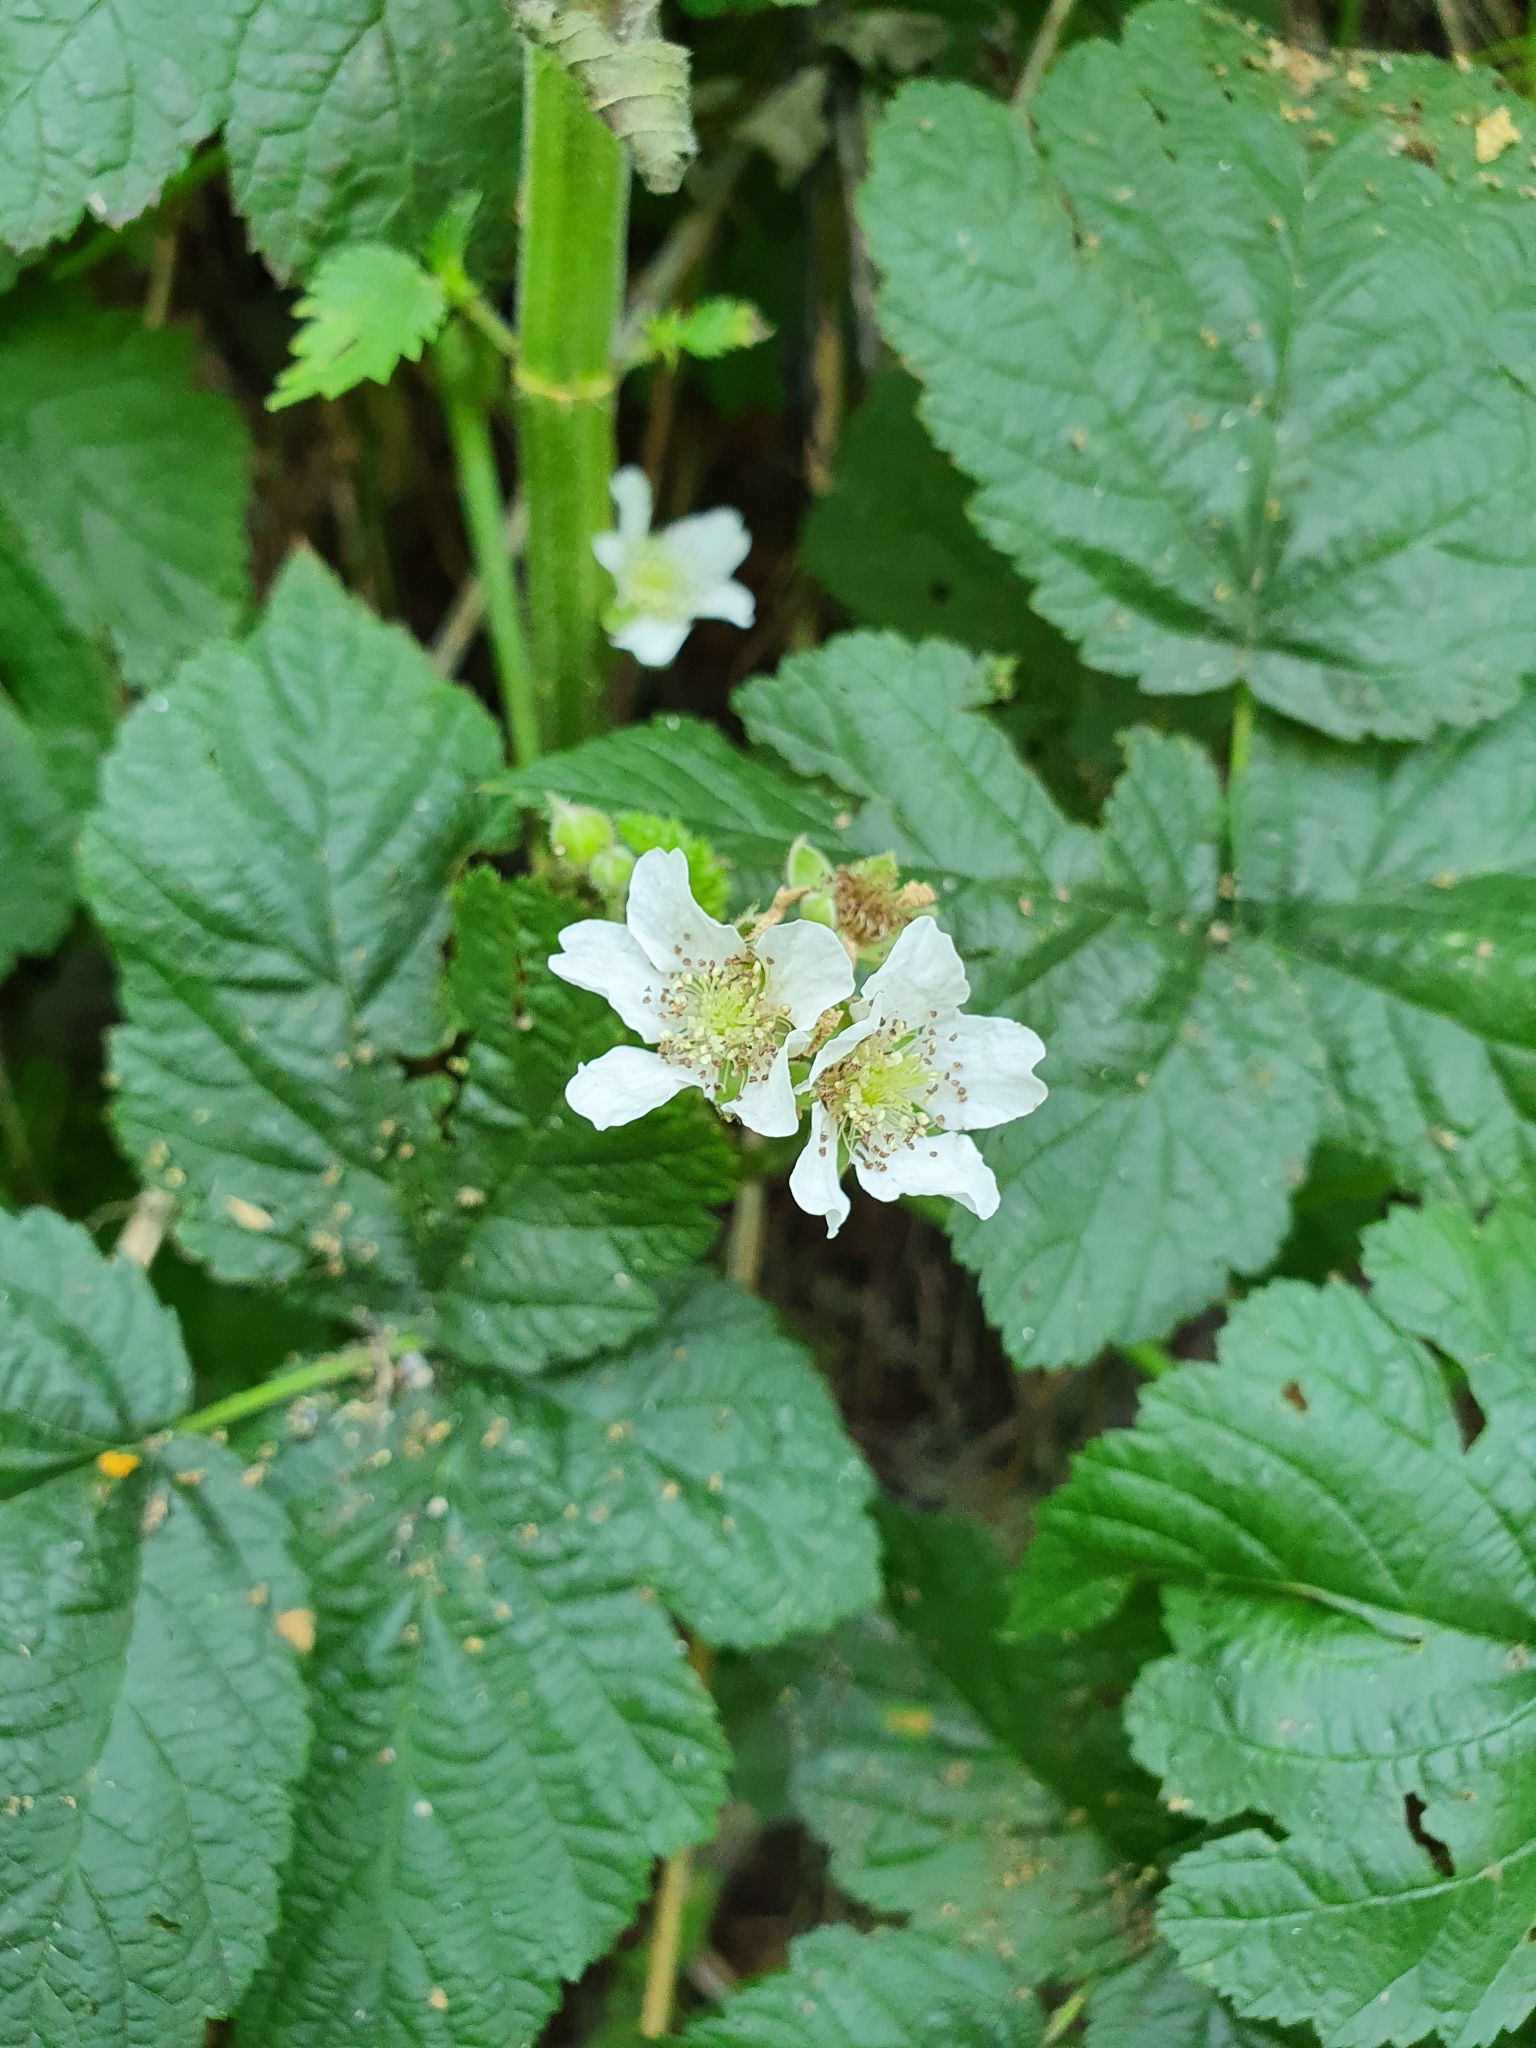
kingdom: Plantae
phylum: Tracheophyta
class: Magnoliopsida
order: Rosales
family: Rosaceae
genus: Rubus
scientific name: Rubus caesius
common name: Dewberry
